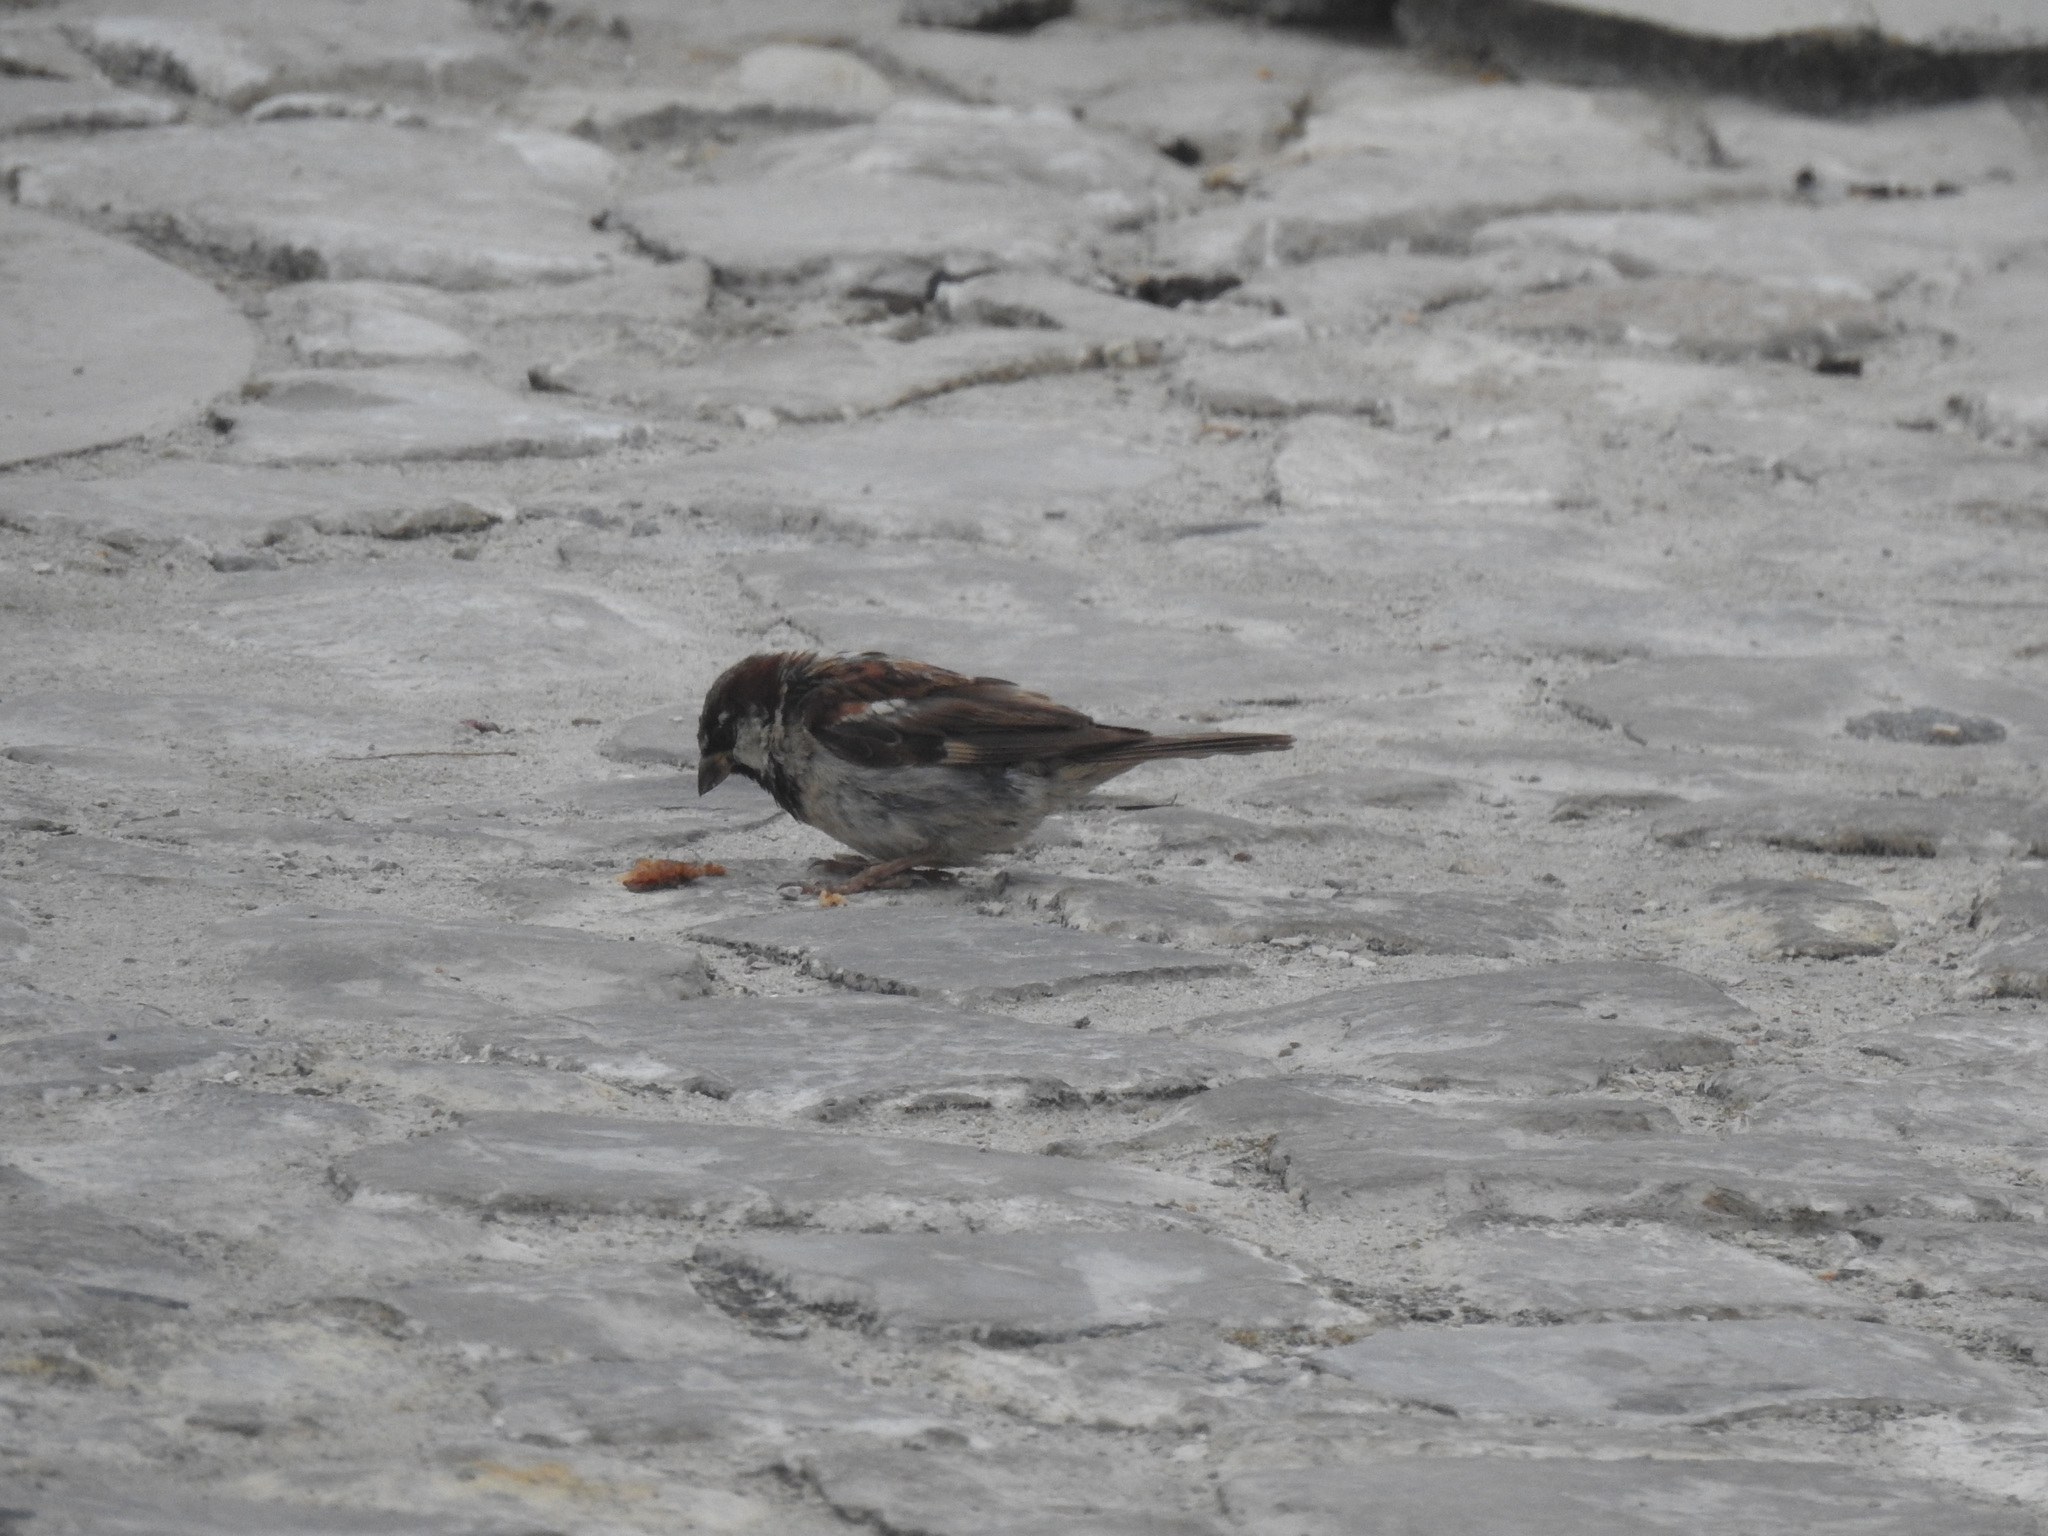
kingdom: Animalia
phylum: Chordata
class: Aves
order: Passeriformes
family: Passeridae
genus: Passer
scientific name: Passer domesticus
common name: House sparrow
